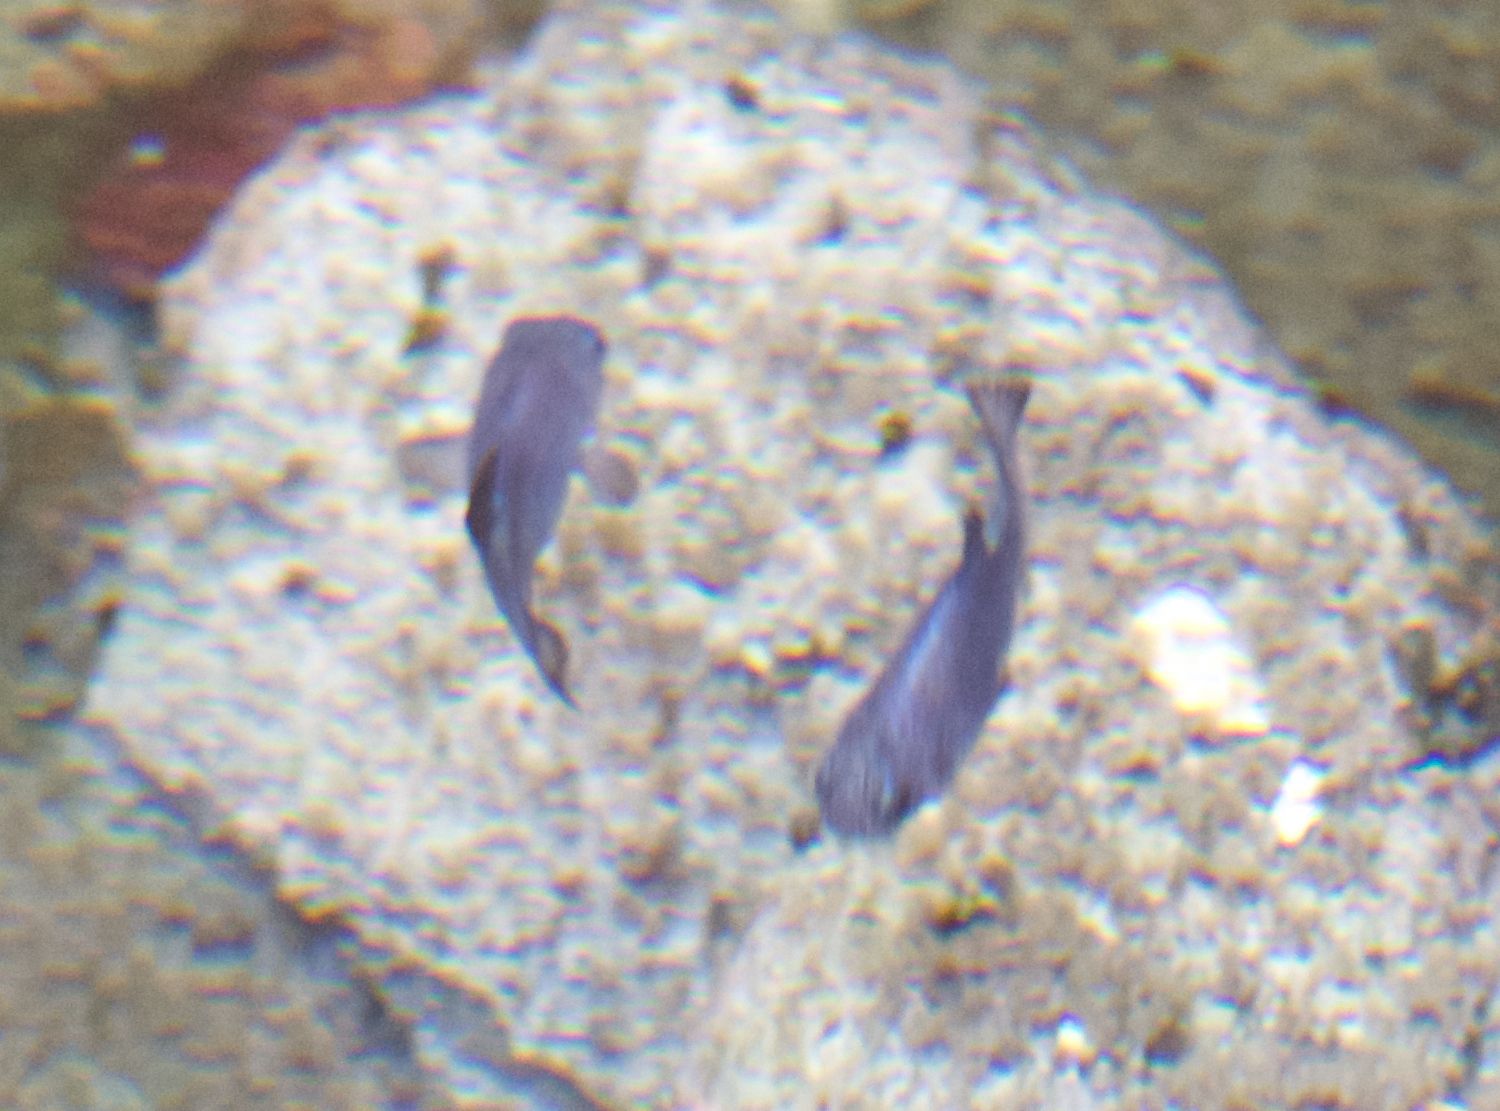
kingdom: Animalia
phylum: Chordata
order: Cyprinodontiformes
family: Cyprinodontidae
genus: Cyprinodon
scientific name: Cyprinodon diabolis
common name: Devils hole pupfish
